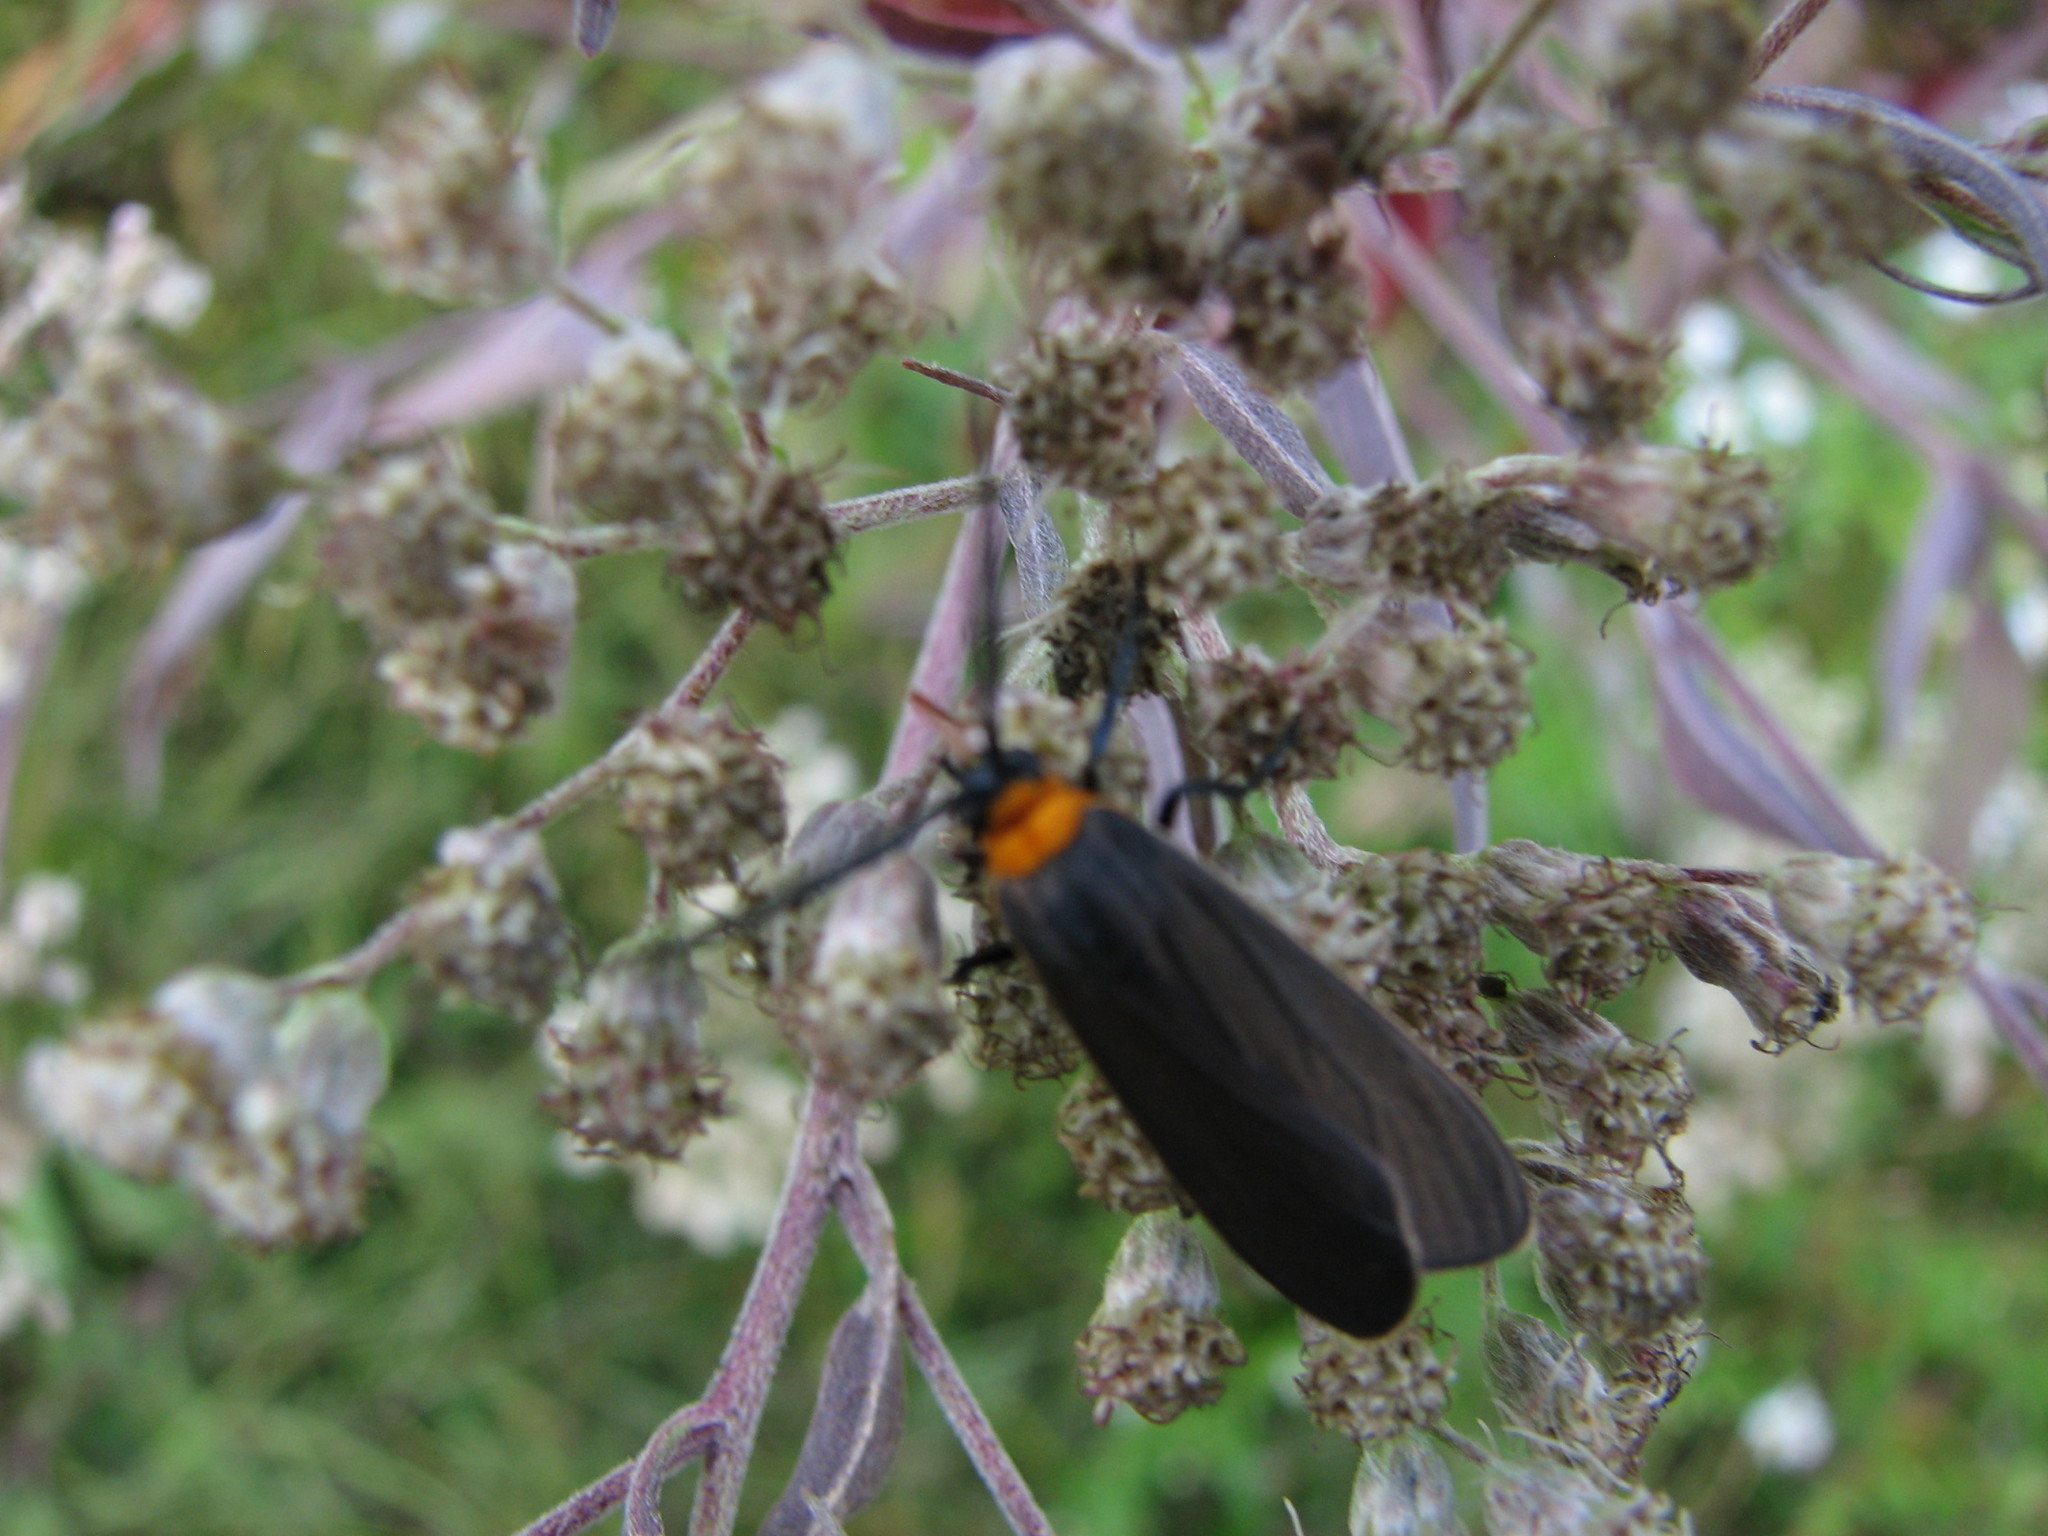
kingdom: Animalia
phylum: Arthropoda
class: Insecta
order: Lepidoptera
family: Erebidae
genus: Cisseps
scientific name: Cisseps fulvicollis
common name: Yellow-collared scape moth
